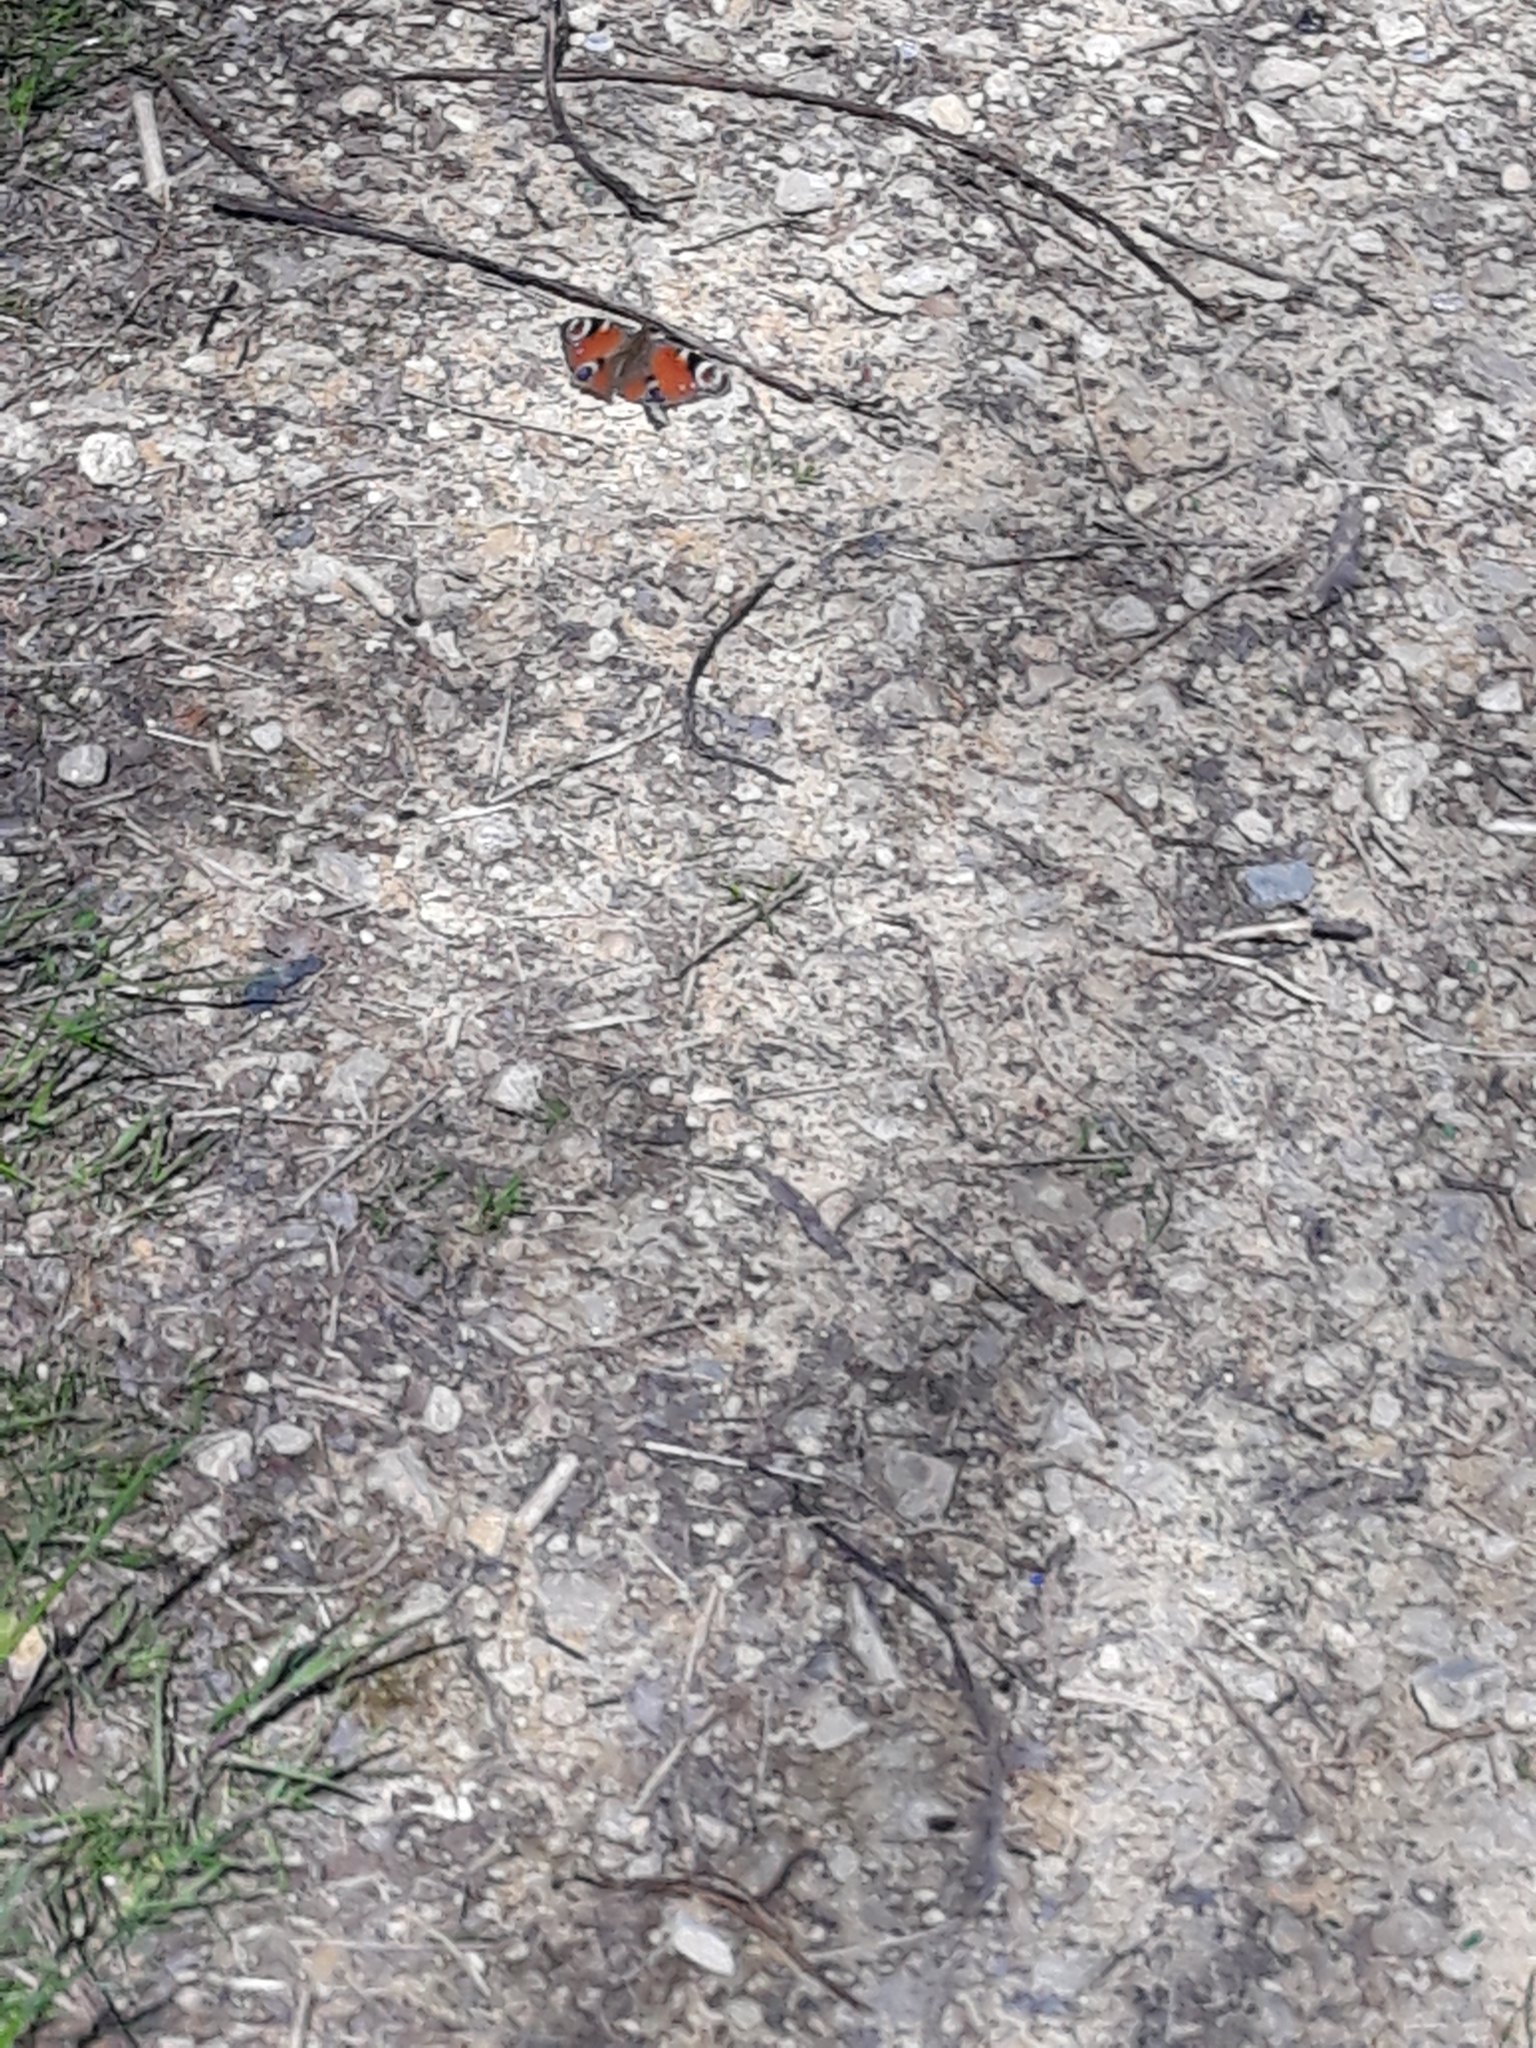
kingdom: Animalia
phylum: Arthropoda
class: Insecta
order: Lepidoptera
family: Nymphalidae
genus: Aglais
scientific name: Aglais io
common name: Peacock
